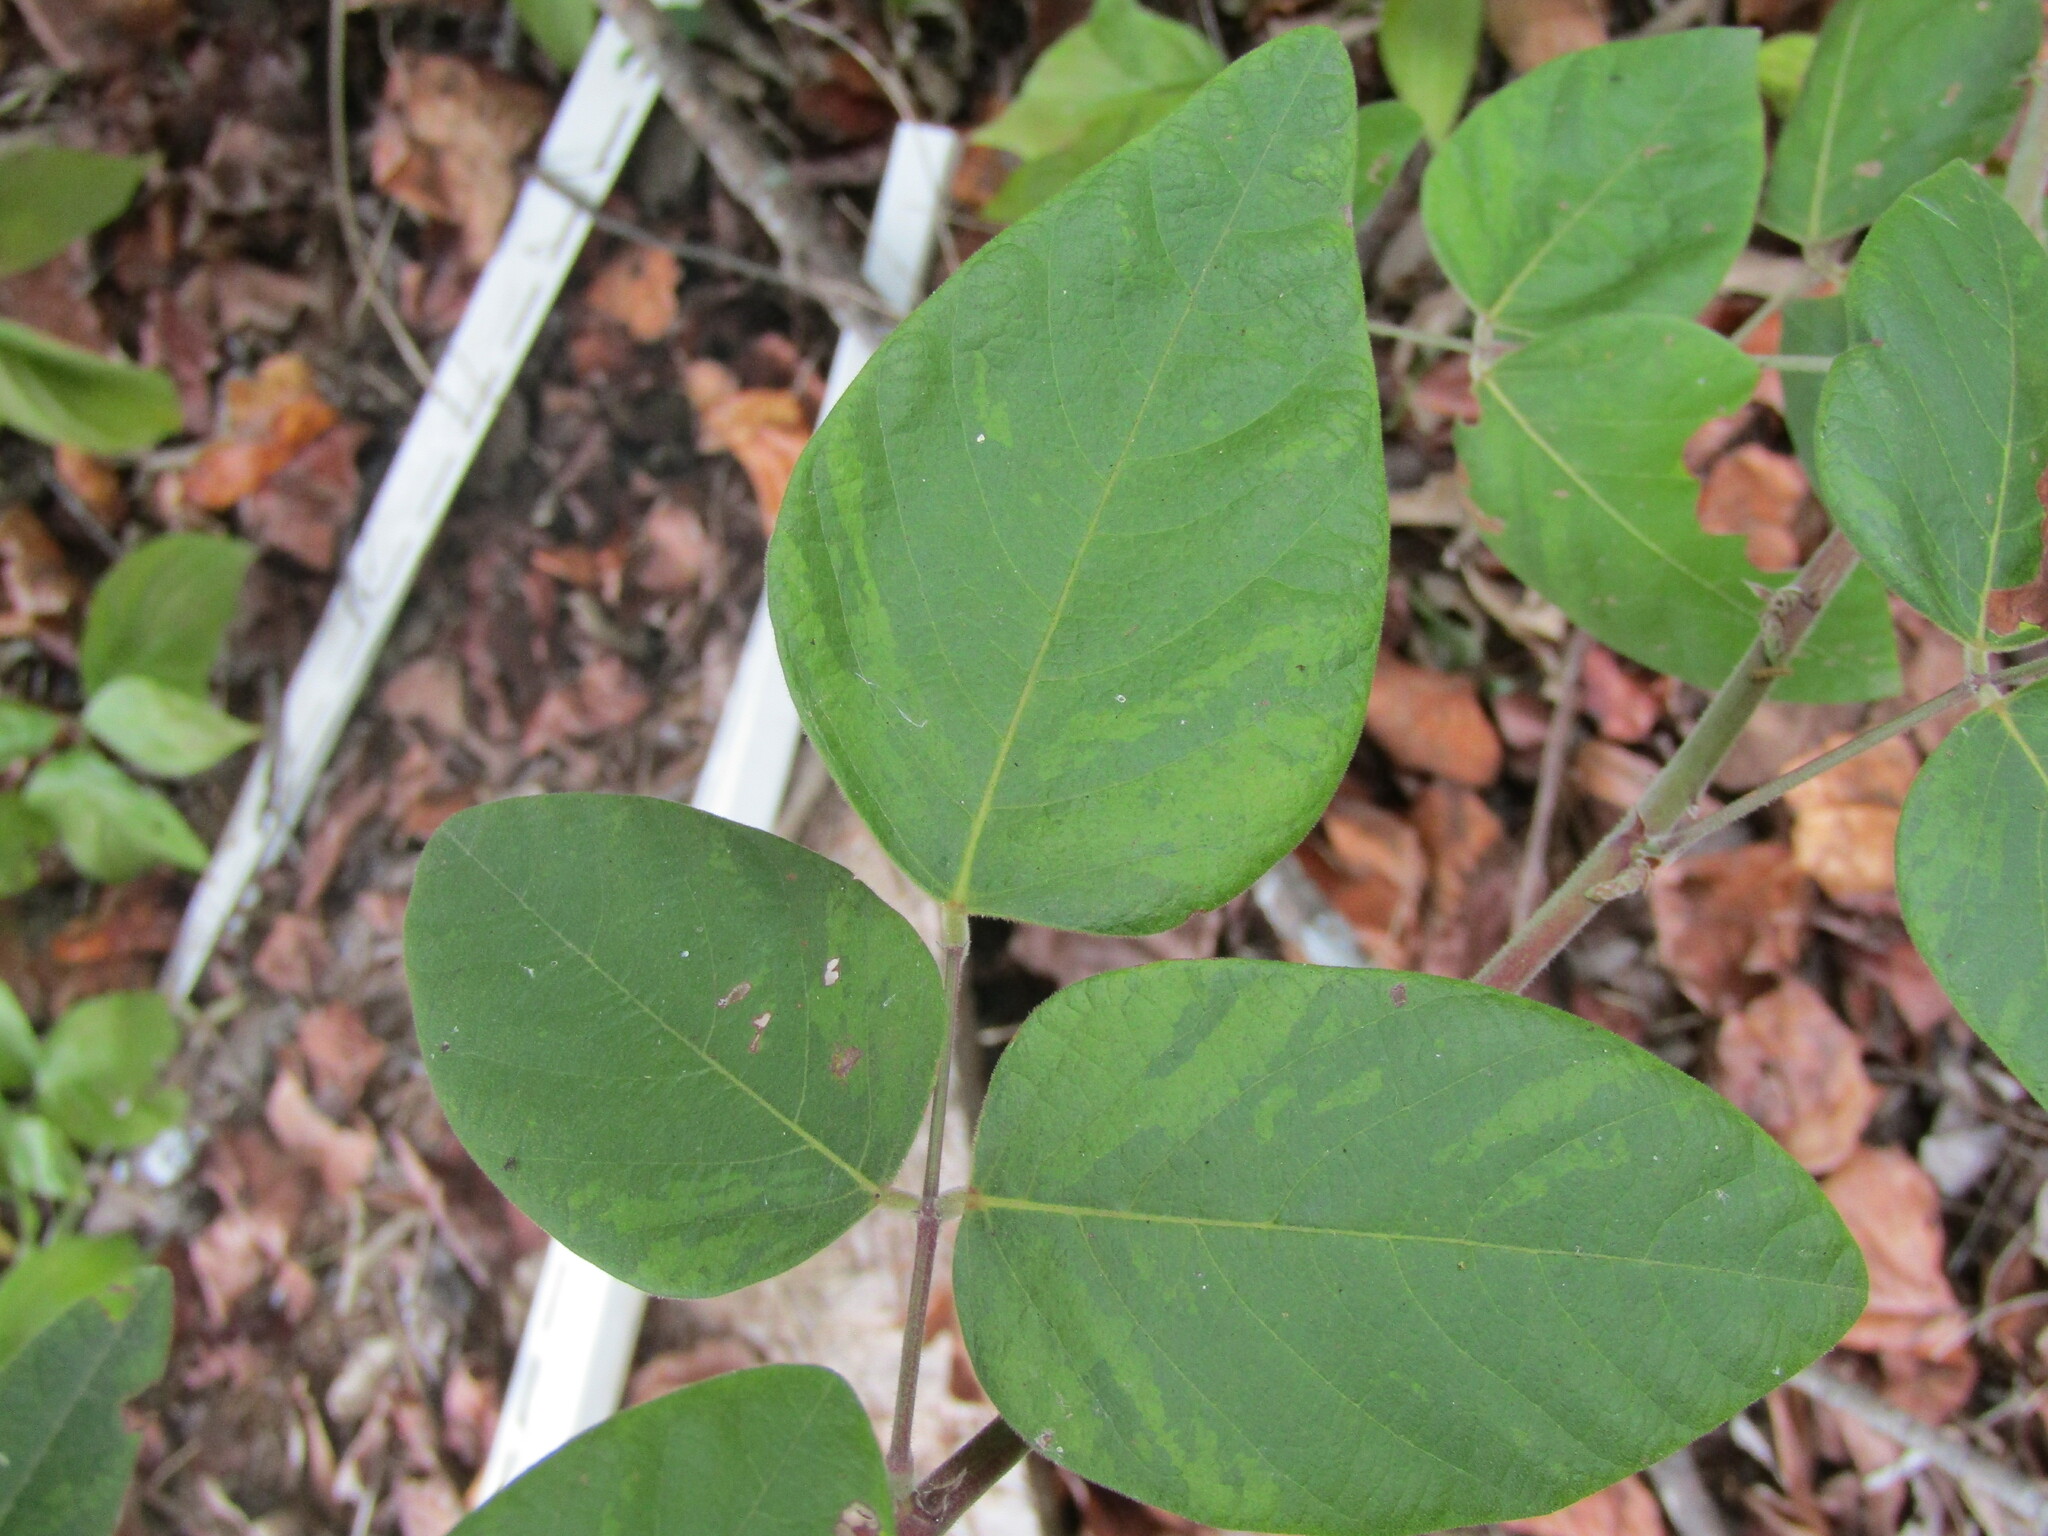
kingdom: Plantae
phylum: Tracheophyta
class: Magnoliopsida
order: Fabales
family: Fabaceae
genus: Desmodium
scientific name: Desmodium viridiflorum
